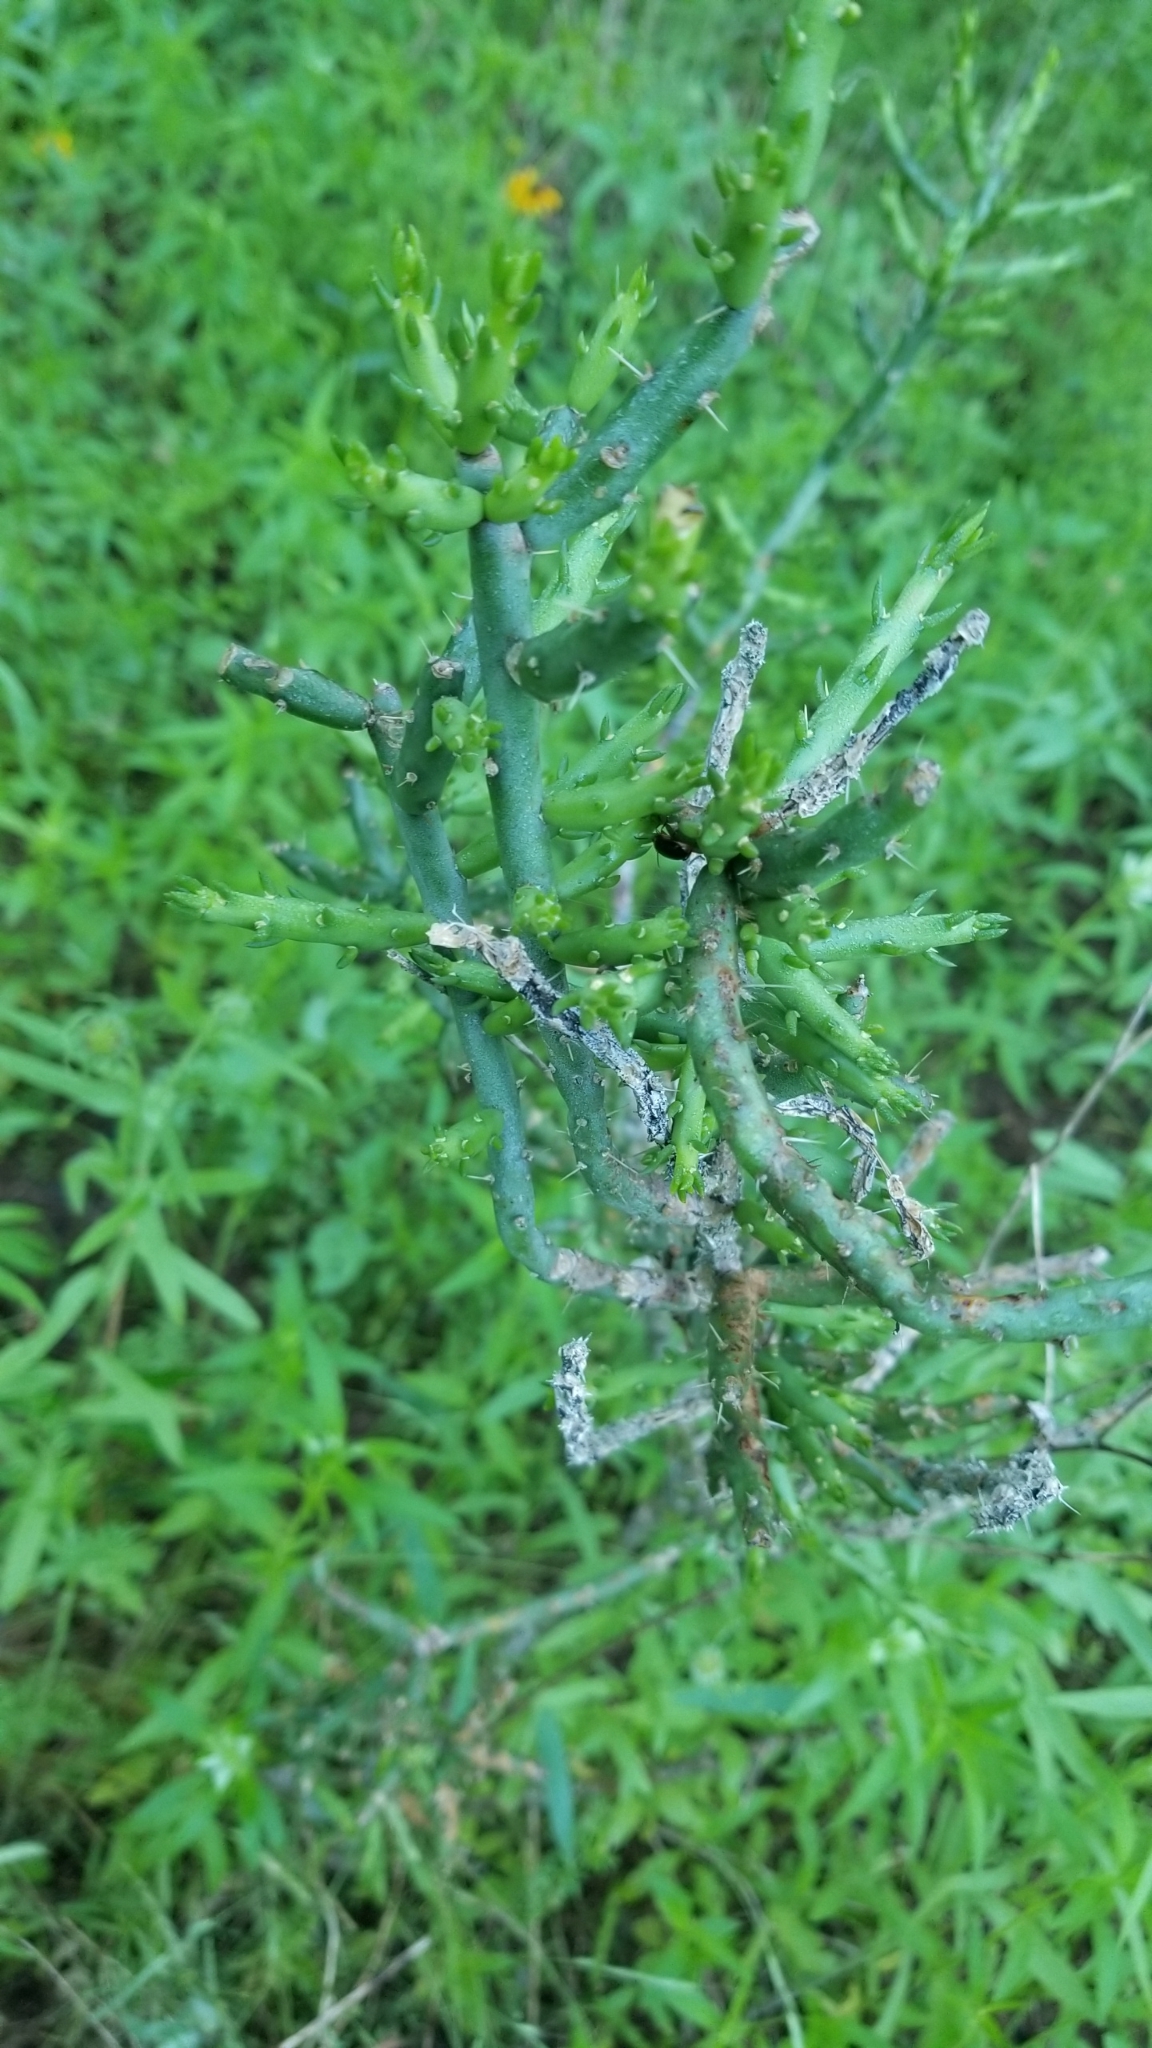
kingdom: Plantae
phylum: Tracheophyta
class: Magnoliopsida
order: Caryophyllales
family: Cactaceae
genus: Cylindropuntia
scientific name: Cylindropuntia leptocaulis
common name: Christmas cactus
